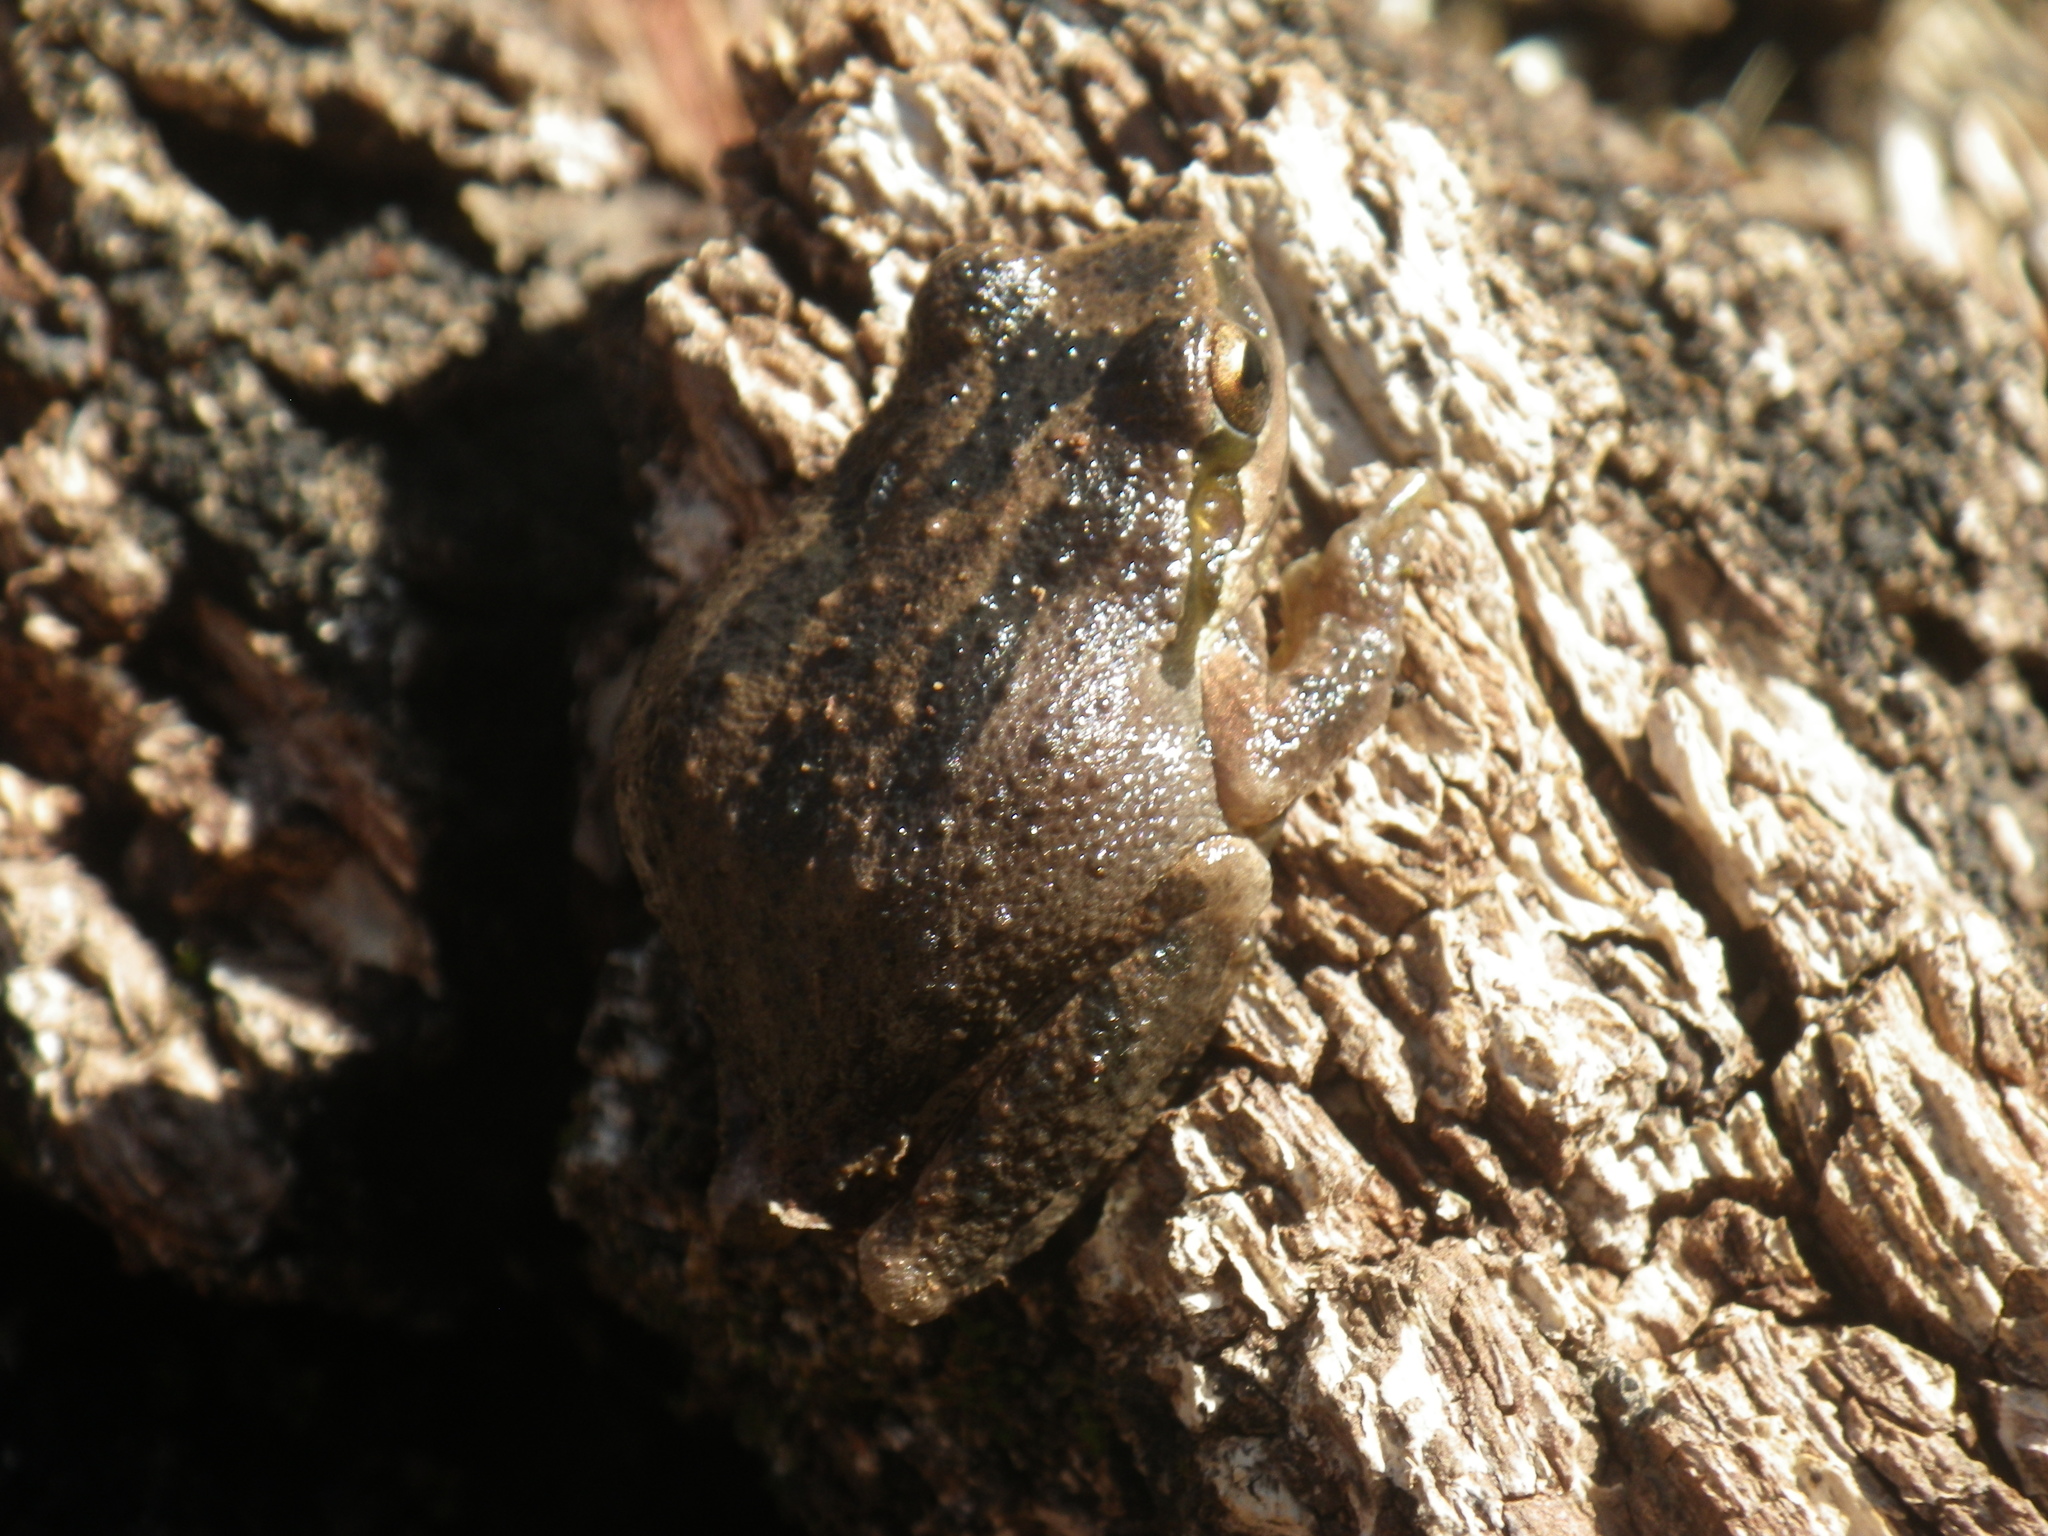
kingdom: Animalia
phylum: Chordata
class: Amphibia
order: Anura
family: Hylidae
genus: Pseudacris
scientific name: Pseudacris regilla
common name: Pacific chorus frog
